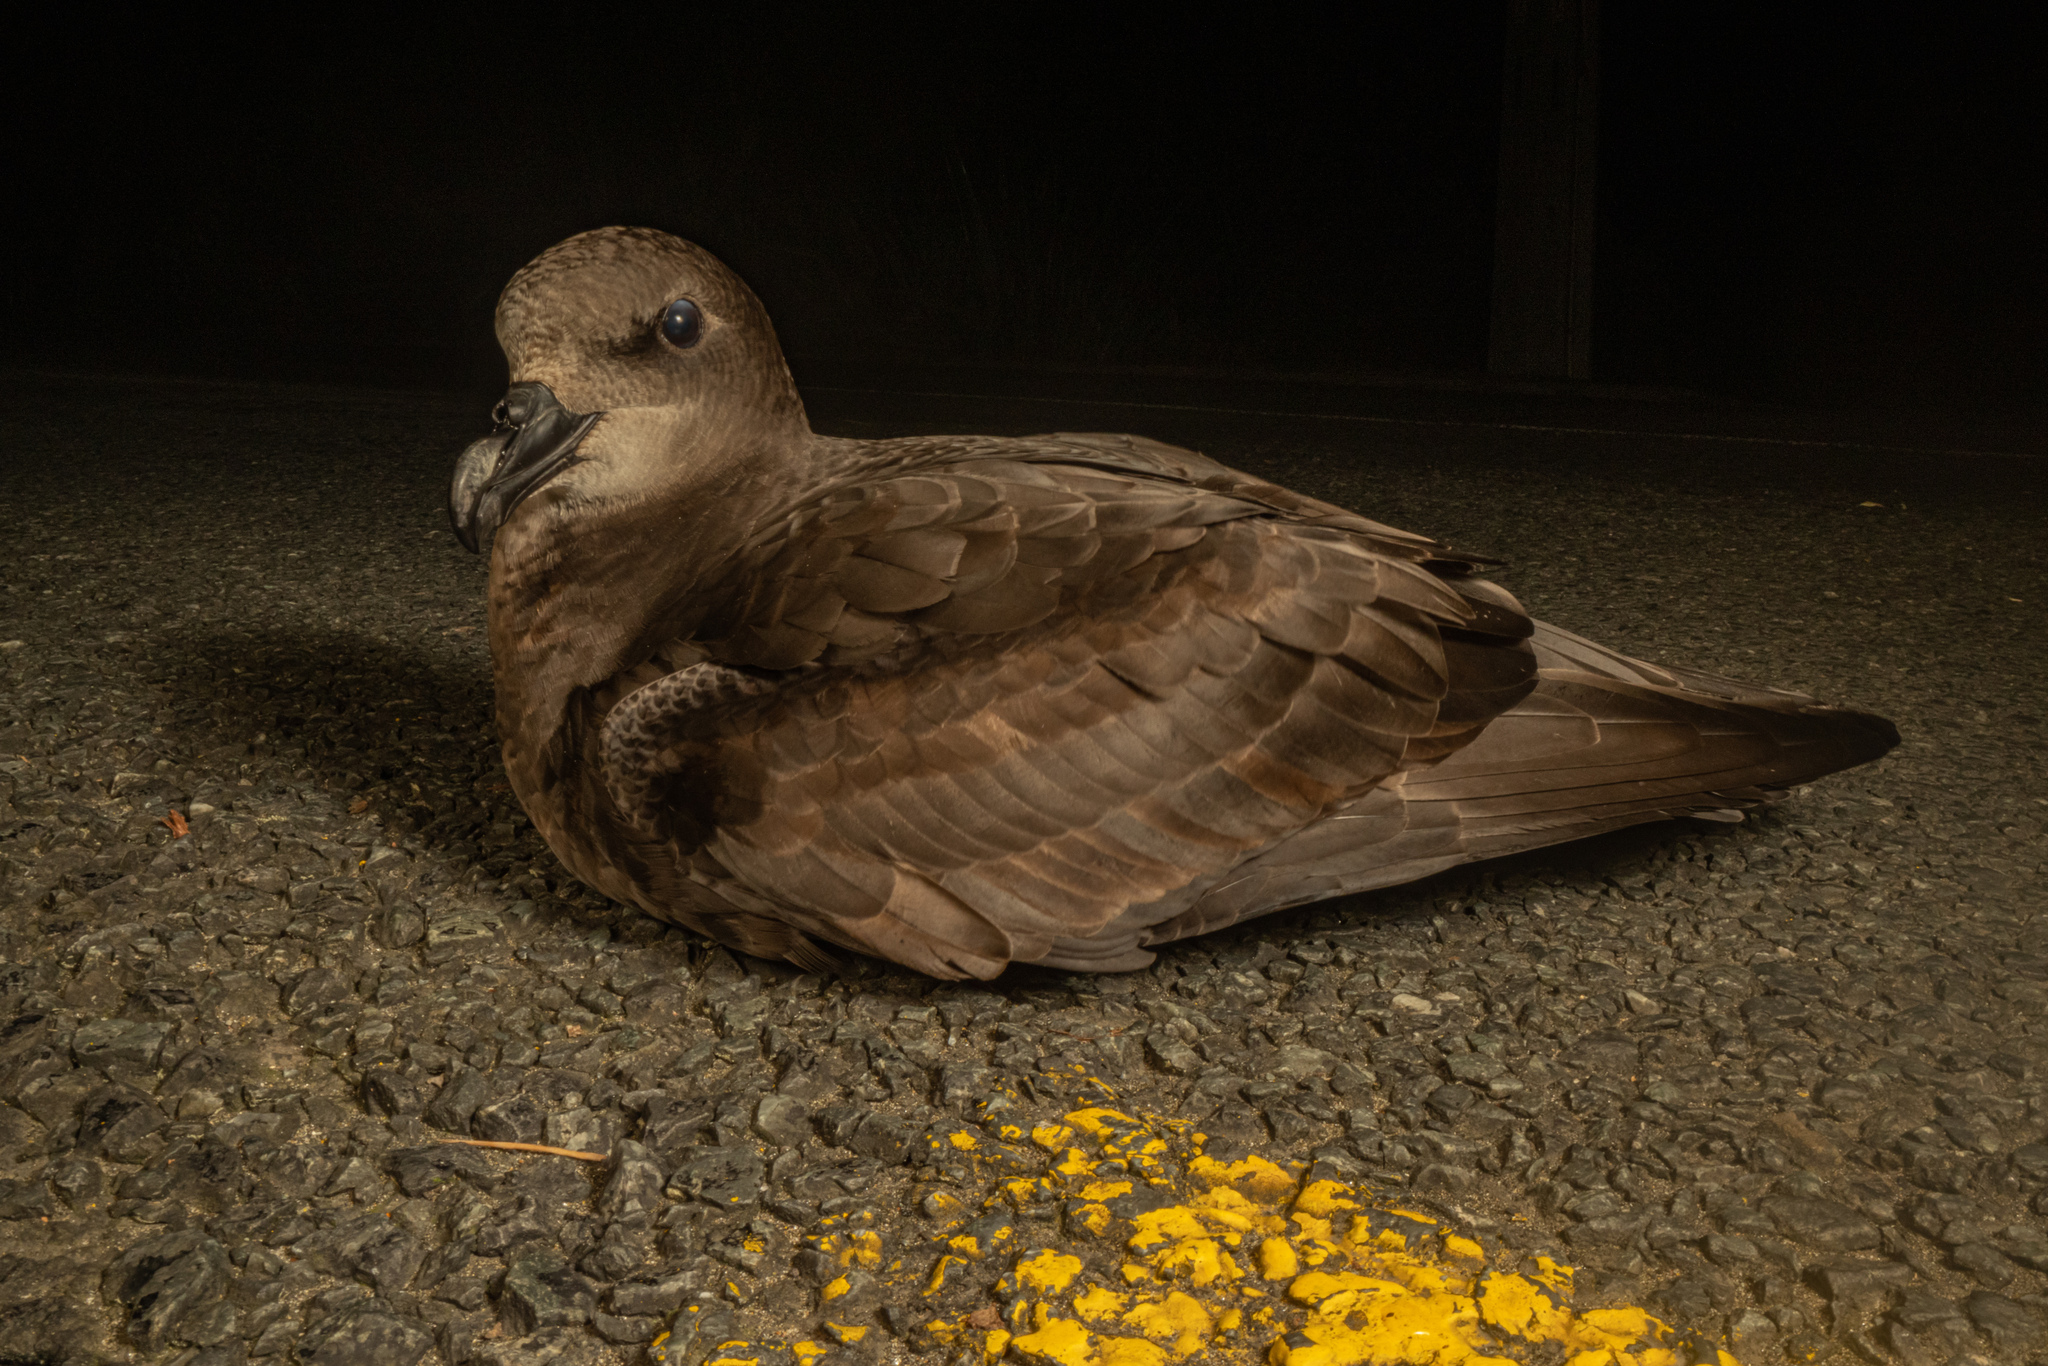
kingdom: Animalia
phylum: Chordata
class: Aves
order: Procellariiformes
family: Procellariidae
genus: Pterodroma
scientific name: Pterodroma macroptera
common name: Great-winged petrel
